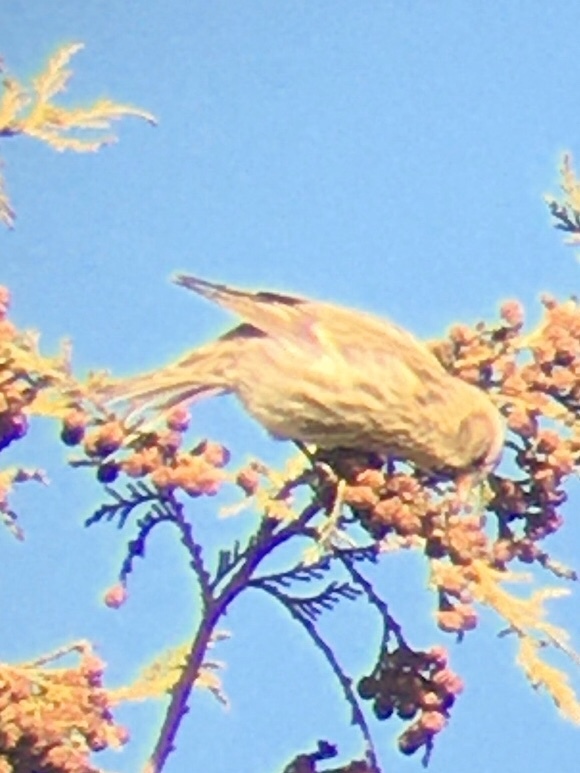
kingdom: Animalia
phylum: Chordata
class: Aves
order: Passeriformes
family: Fringillidae
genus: Acanthis
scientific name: Acanthis flammea
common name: Common redpoll
